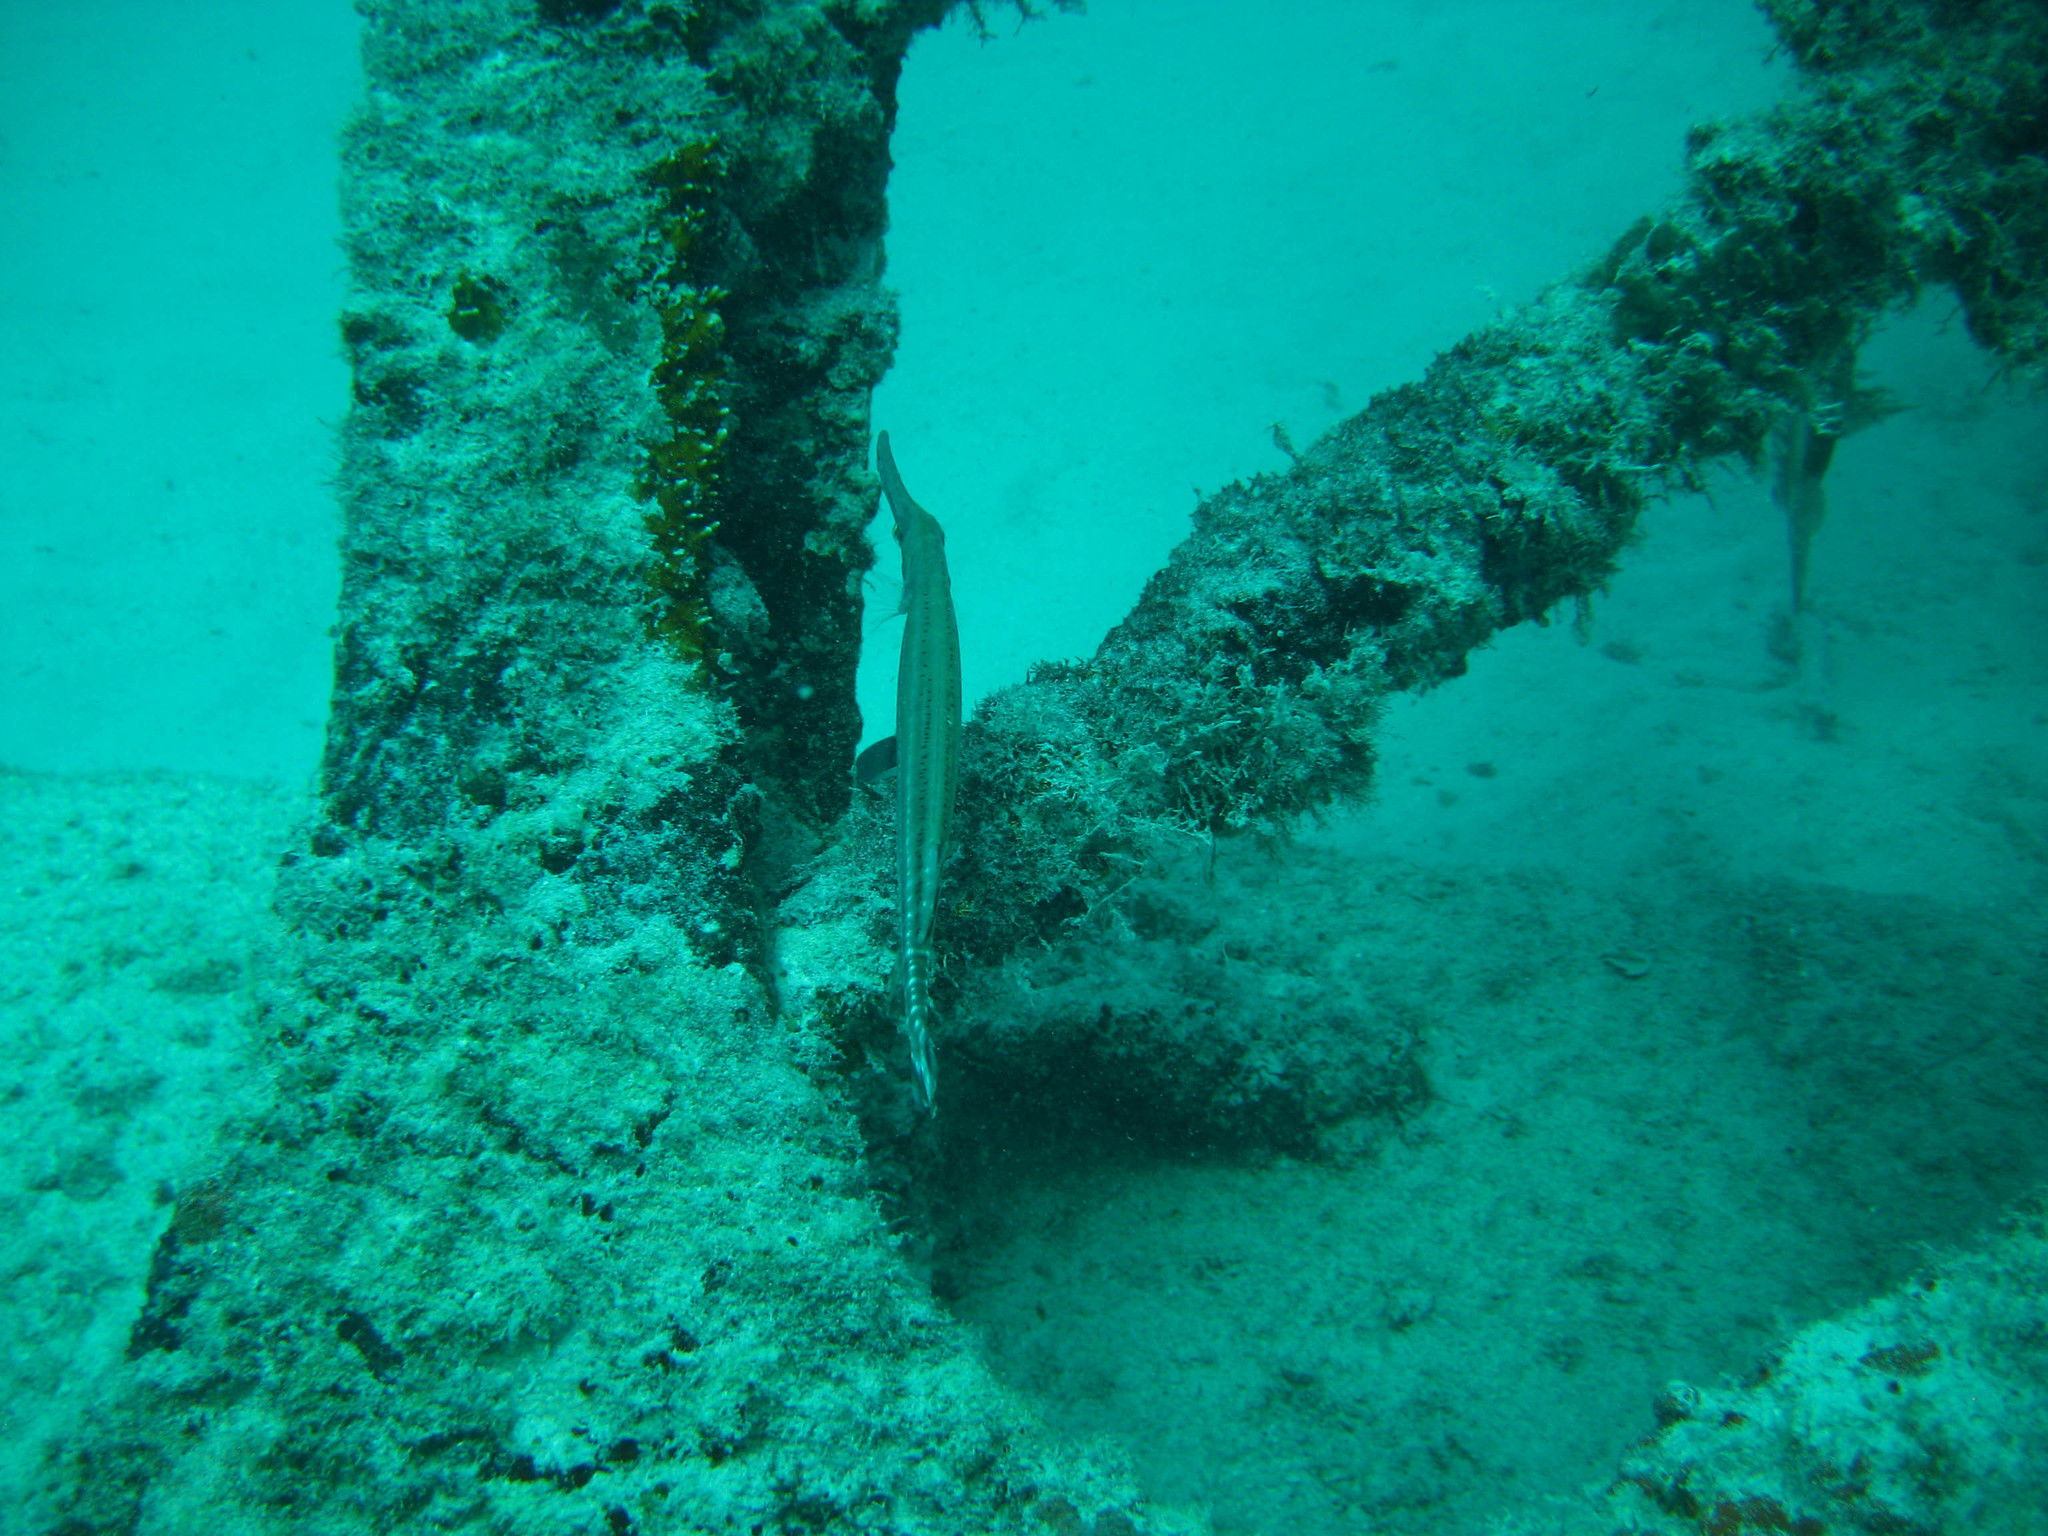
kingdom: Animalia
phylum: Chordata
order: Syngnathiformes
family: Aulostomidae
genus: Aulostomus
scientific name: Aulostomus maculatus
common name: West atlantic trumpetfish
